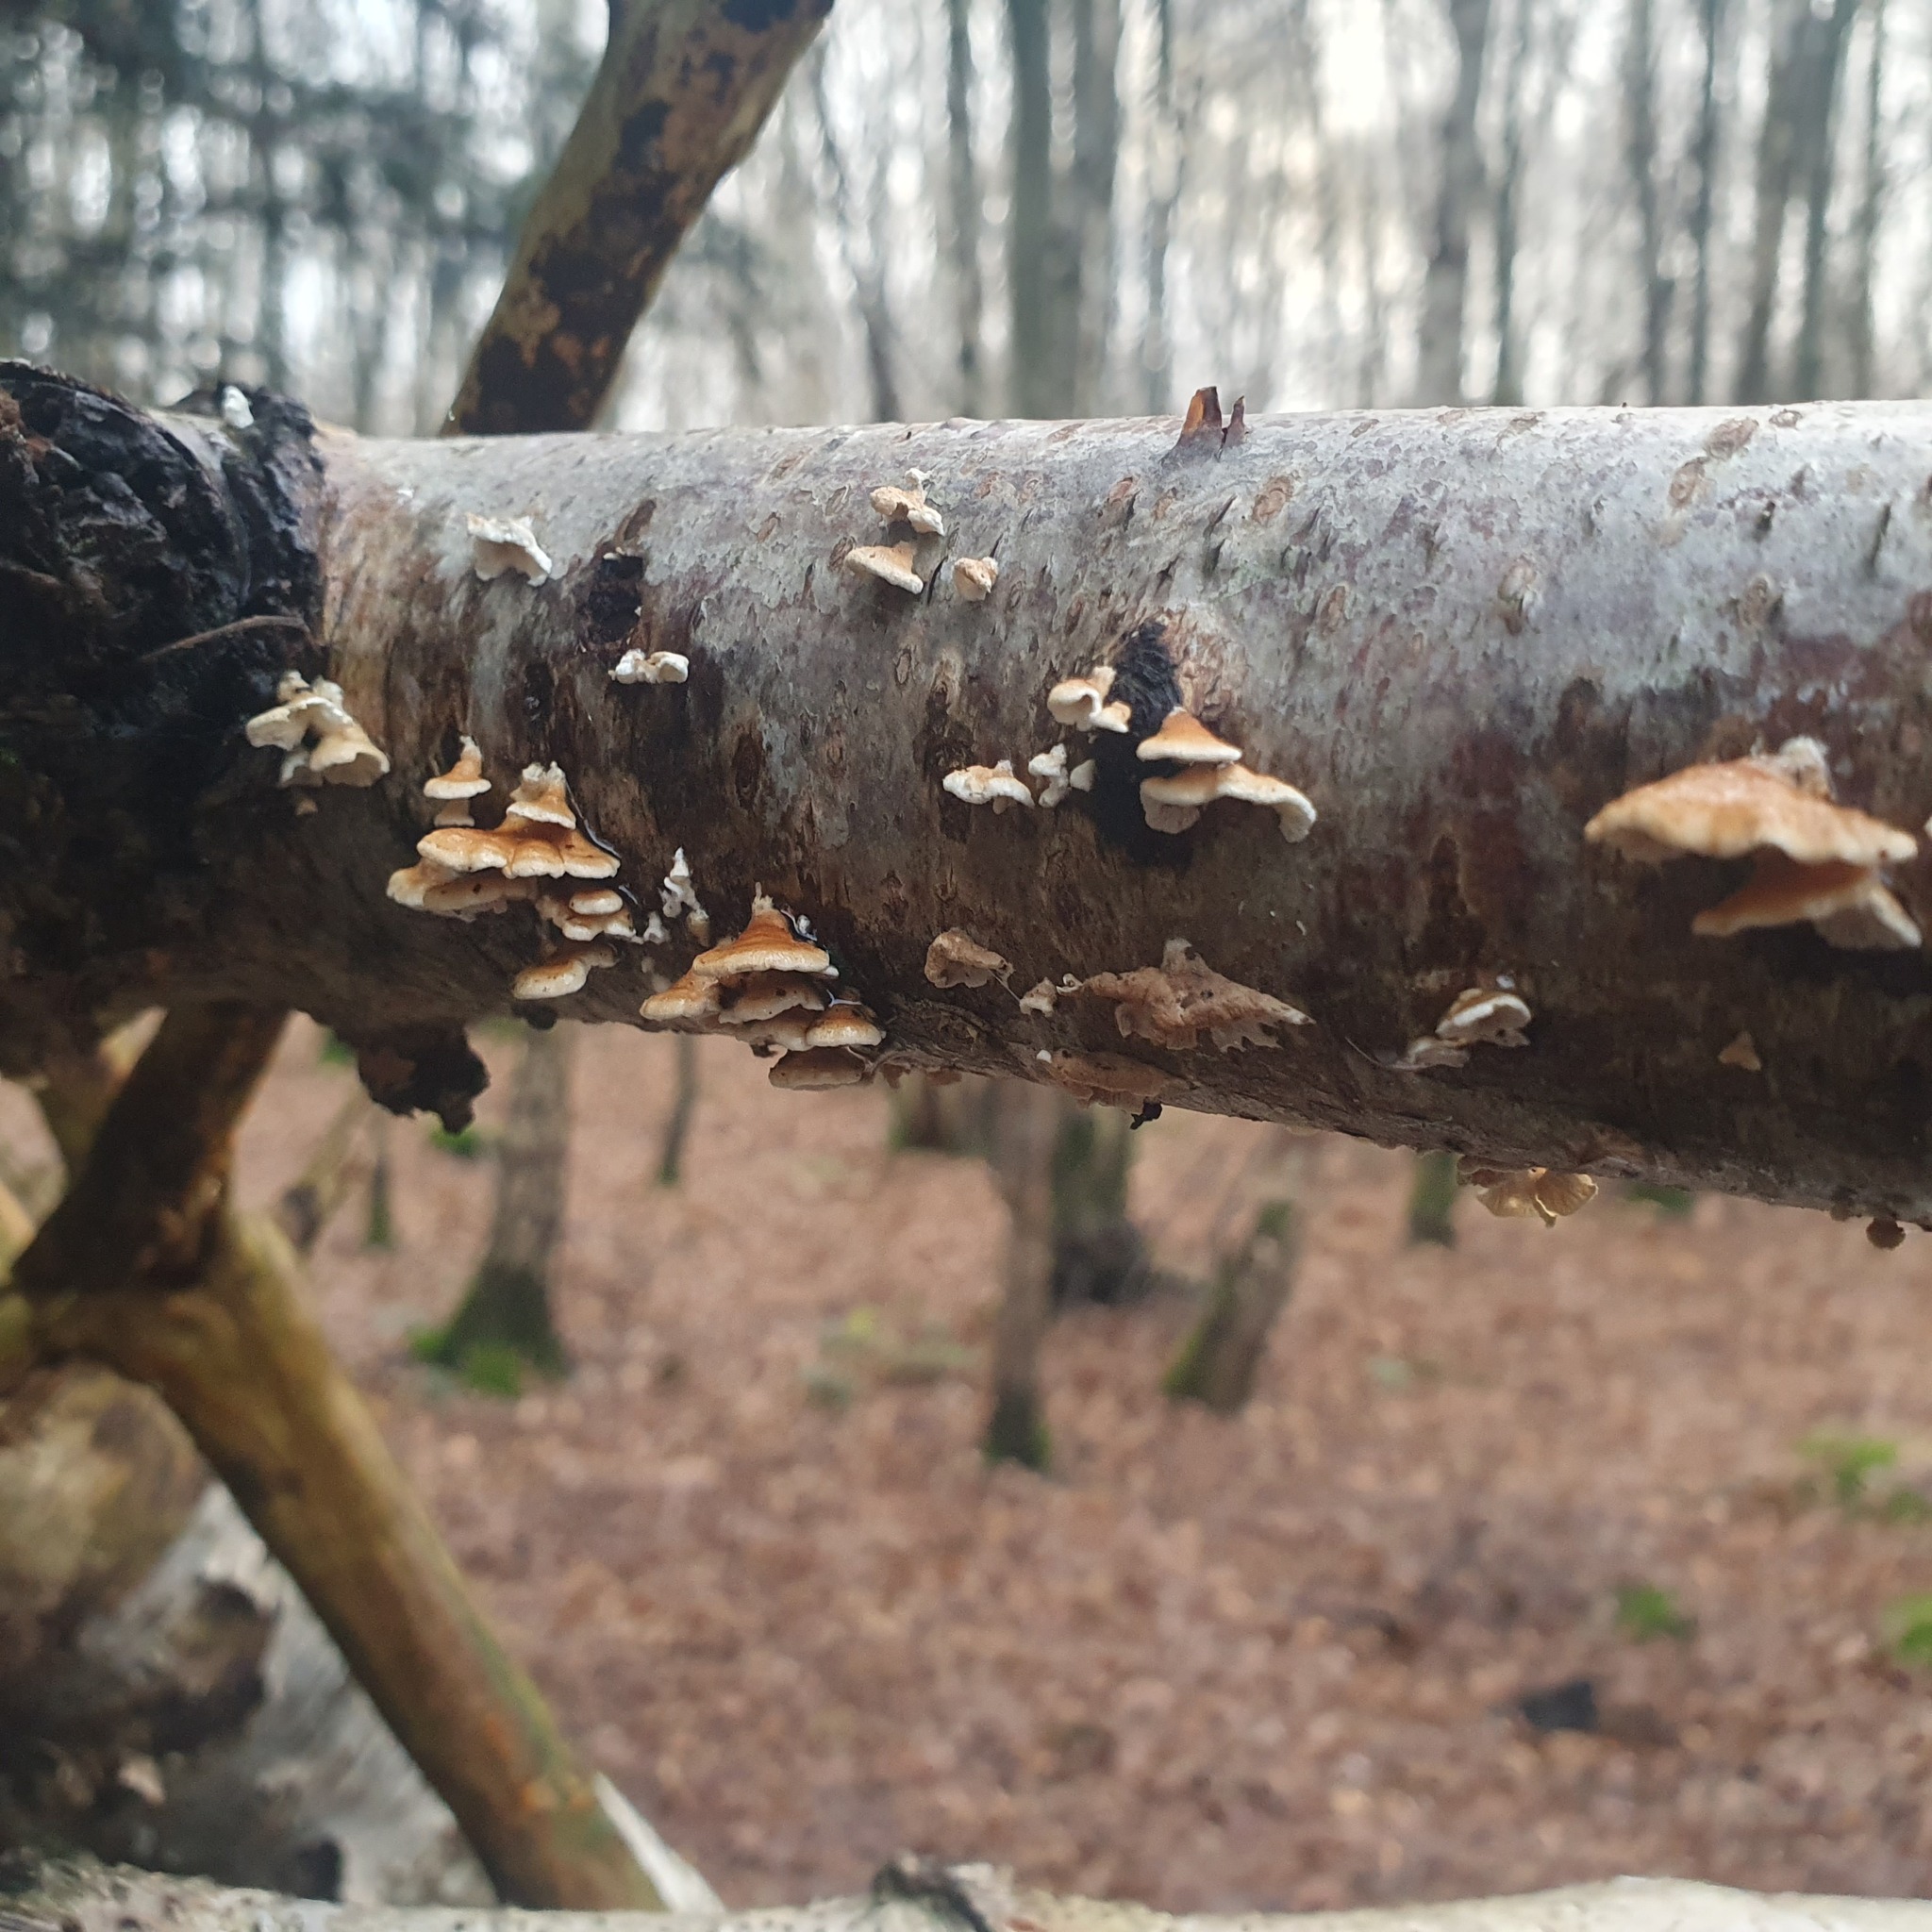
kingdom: Fungi
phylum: Basidiomycota
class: Agaricomycetes
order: Amylocorticiales
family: Amylocorticiaceae
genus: Plicaturopsis
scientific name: Plicaturopsis crispa
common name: Crimped gill
